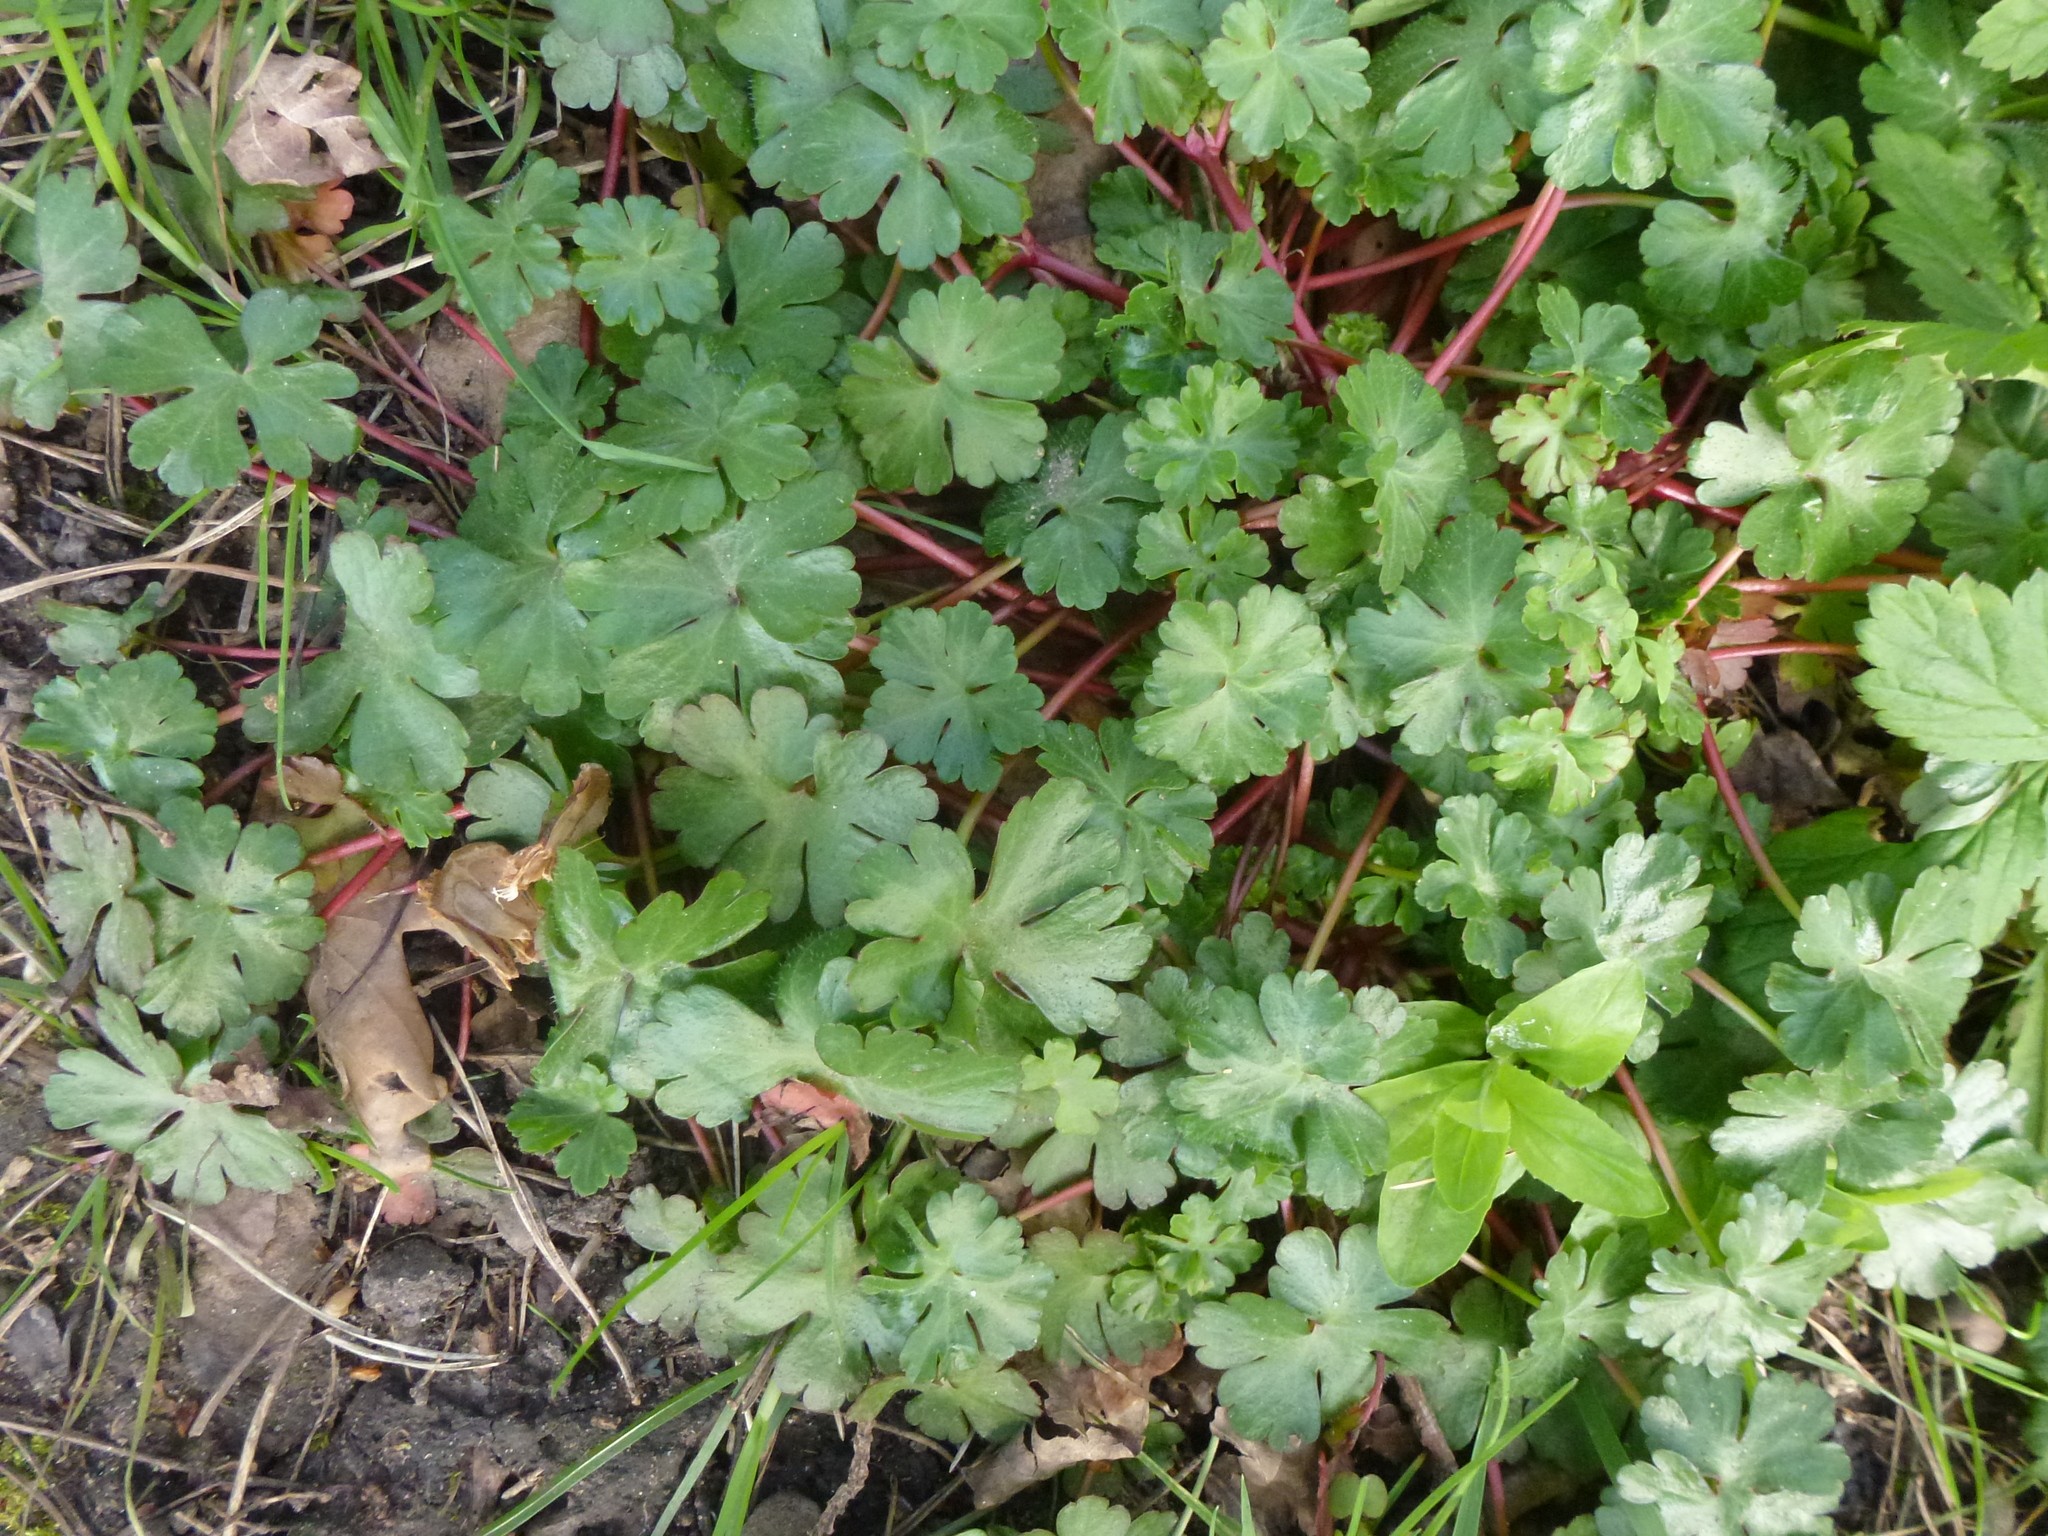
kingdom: Plantae
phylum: Tracheophyta
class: Magnoliopsida
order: Geraniales
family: Geraniaceae
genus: Geranium
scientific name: Geranium lucidum
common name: Shining crane's-bill
